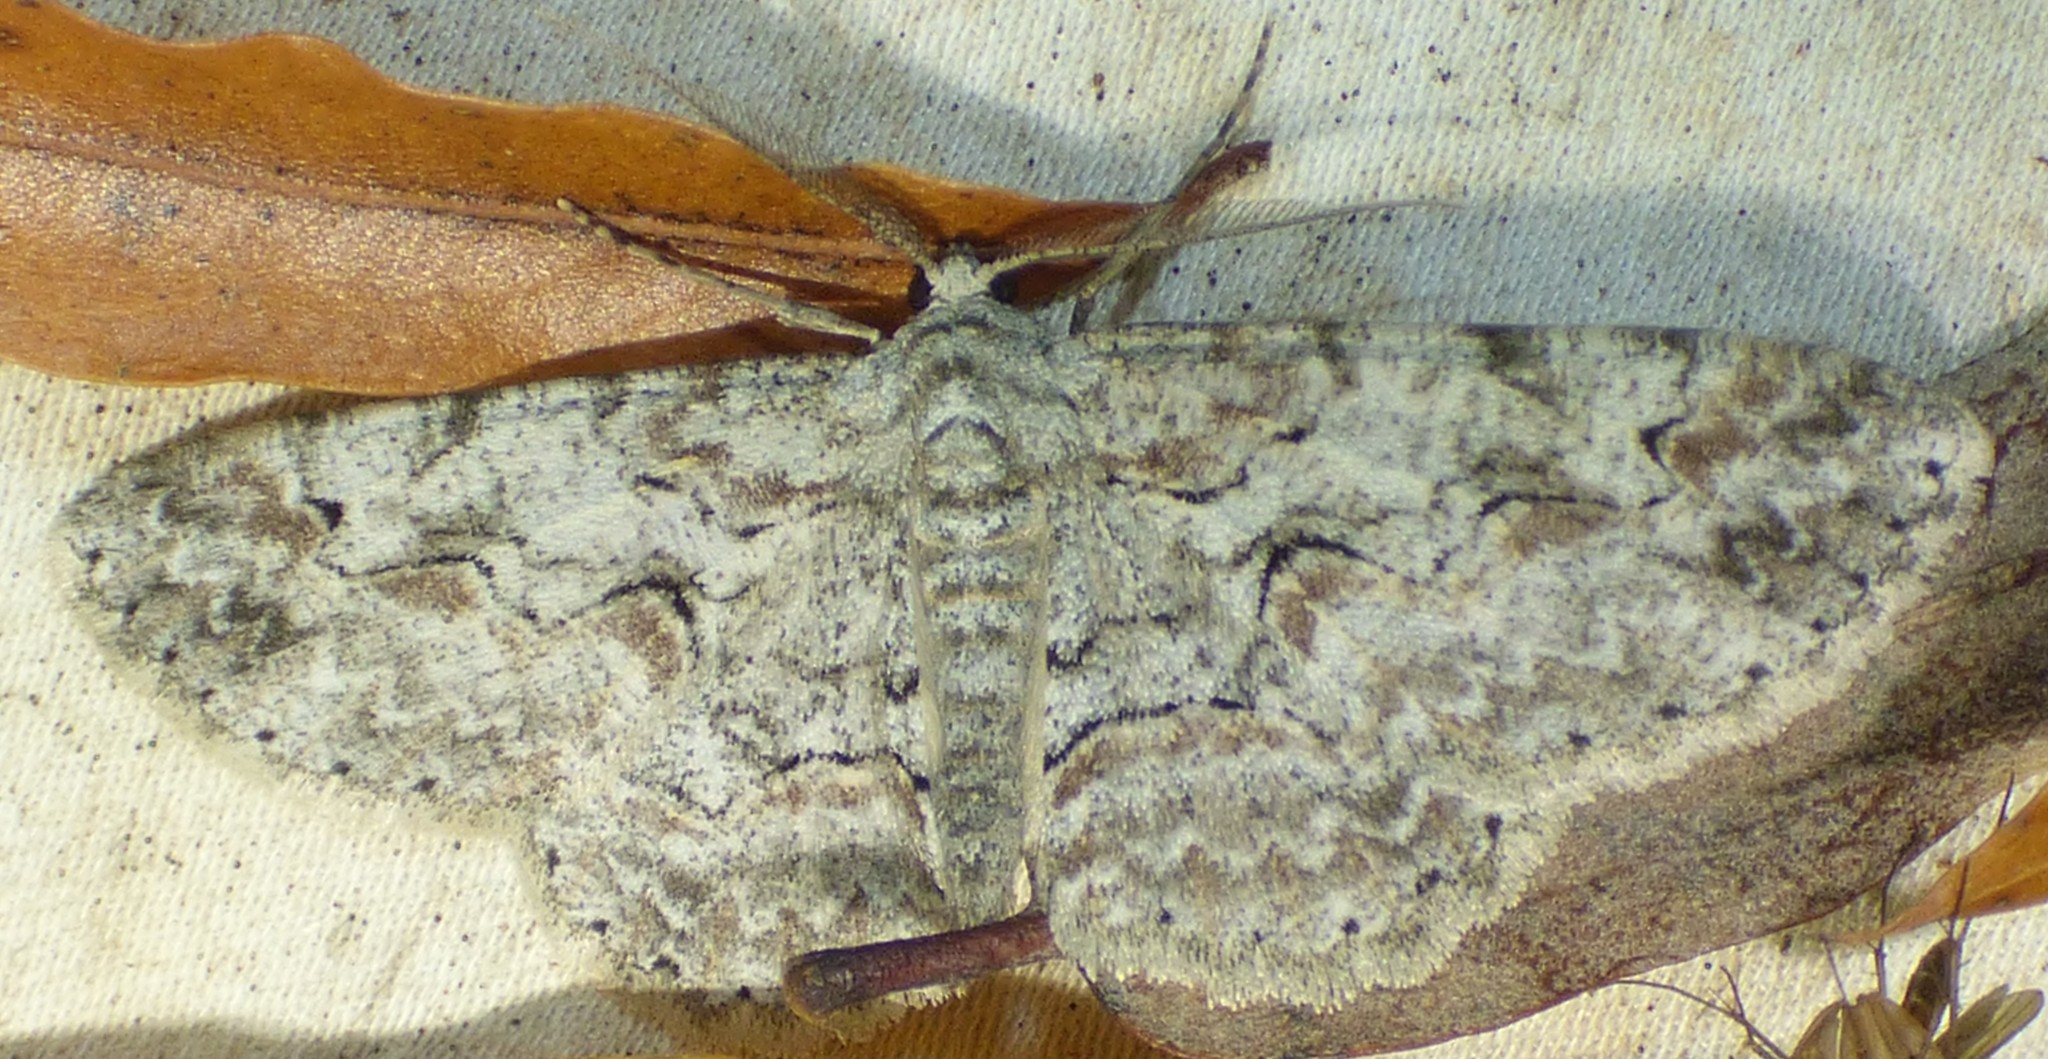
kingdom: Animalia
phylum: Arthropoda
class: Insecta
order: Lepidoptera
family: Geometridae
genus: Iridopsis
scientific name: Iridopsis defectaria
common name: Brown-shaded gray
